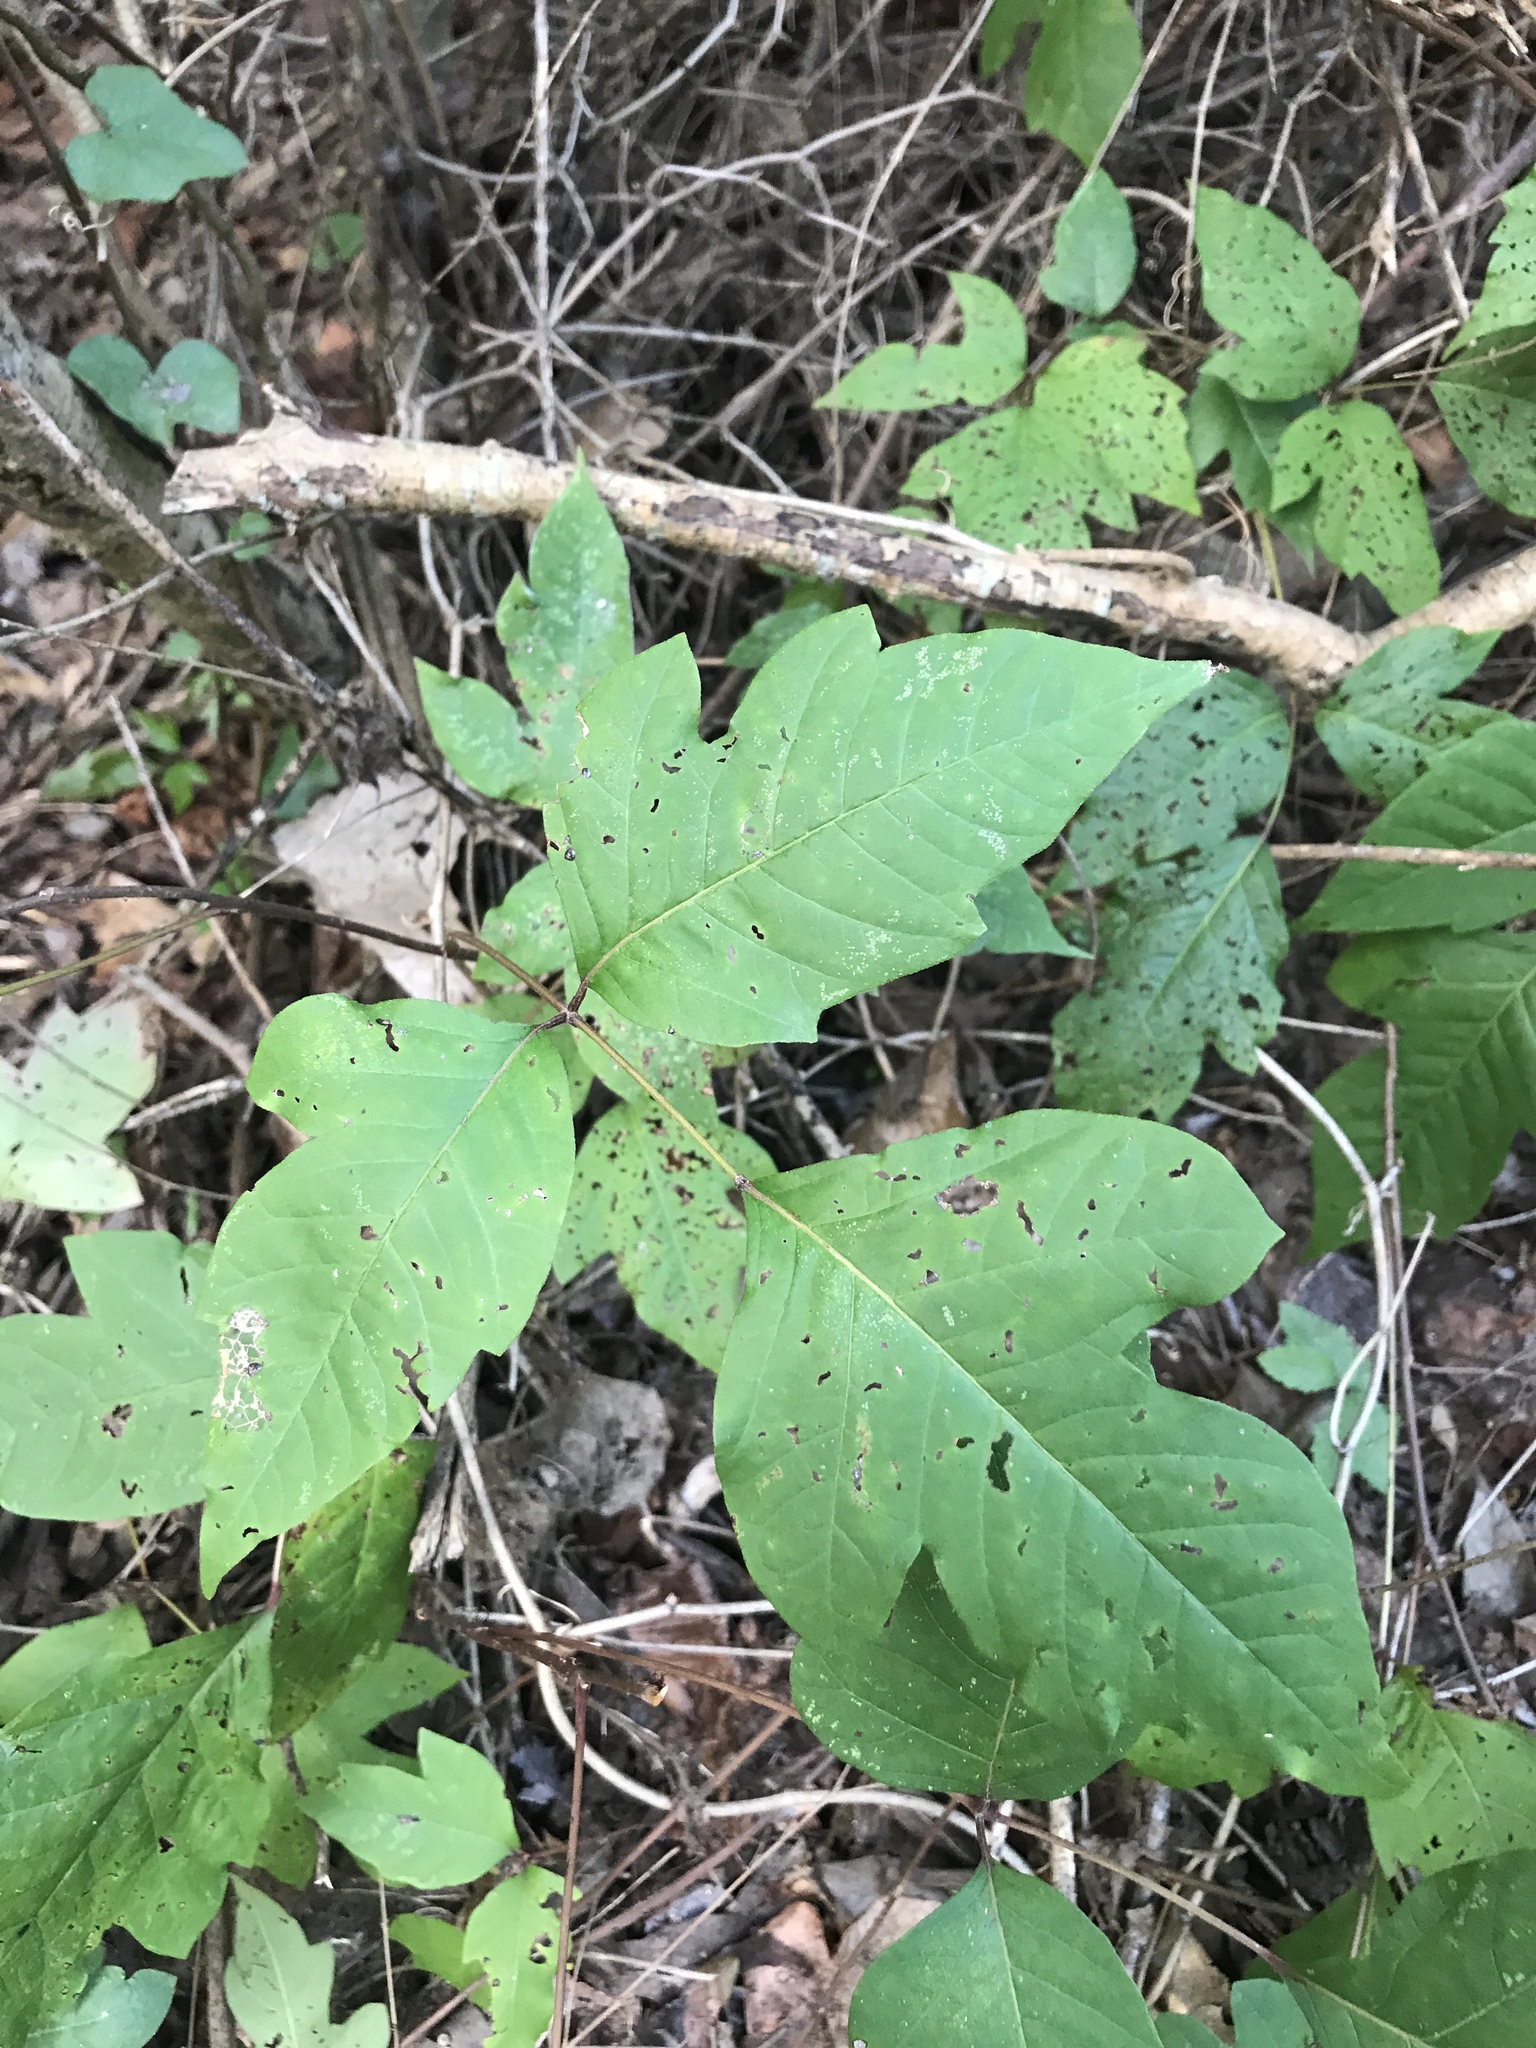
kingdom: Plantae
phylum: Tracheophyta
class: Magnoliopsida
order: Sapindales
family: Anacardiaceae
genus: Toxicodendron
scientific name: Toxicodendron radicans
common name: Poison ivy
